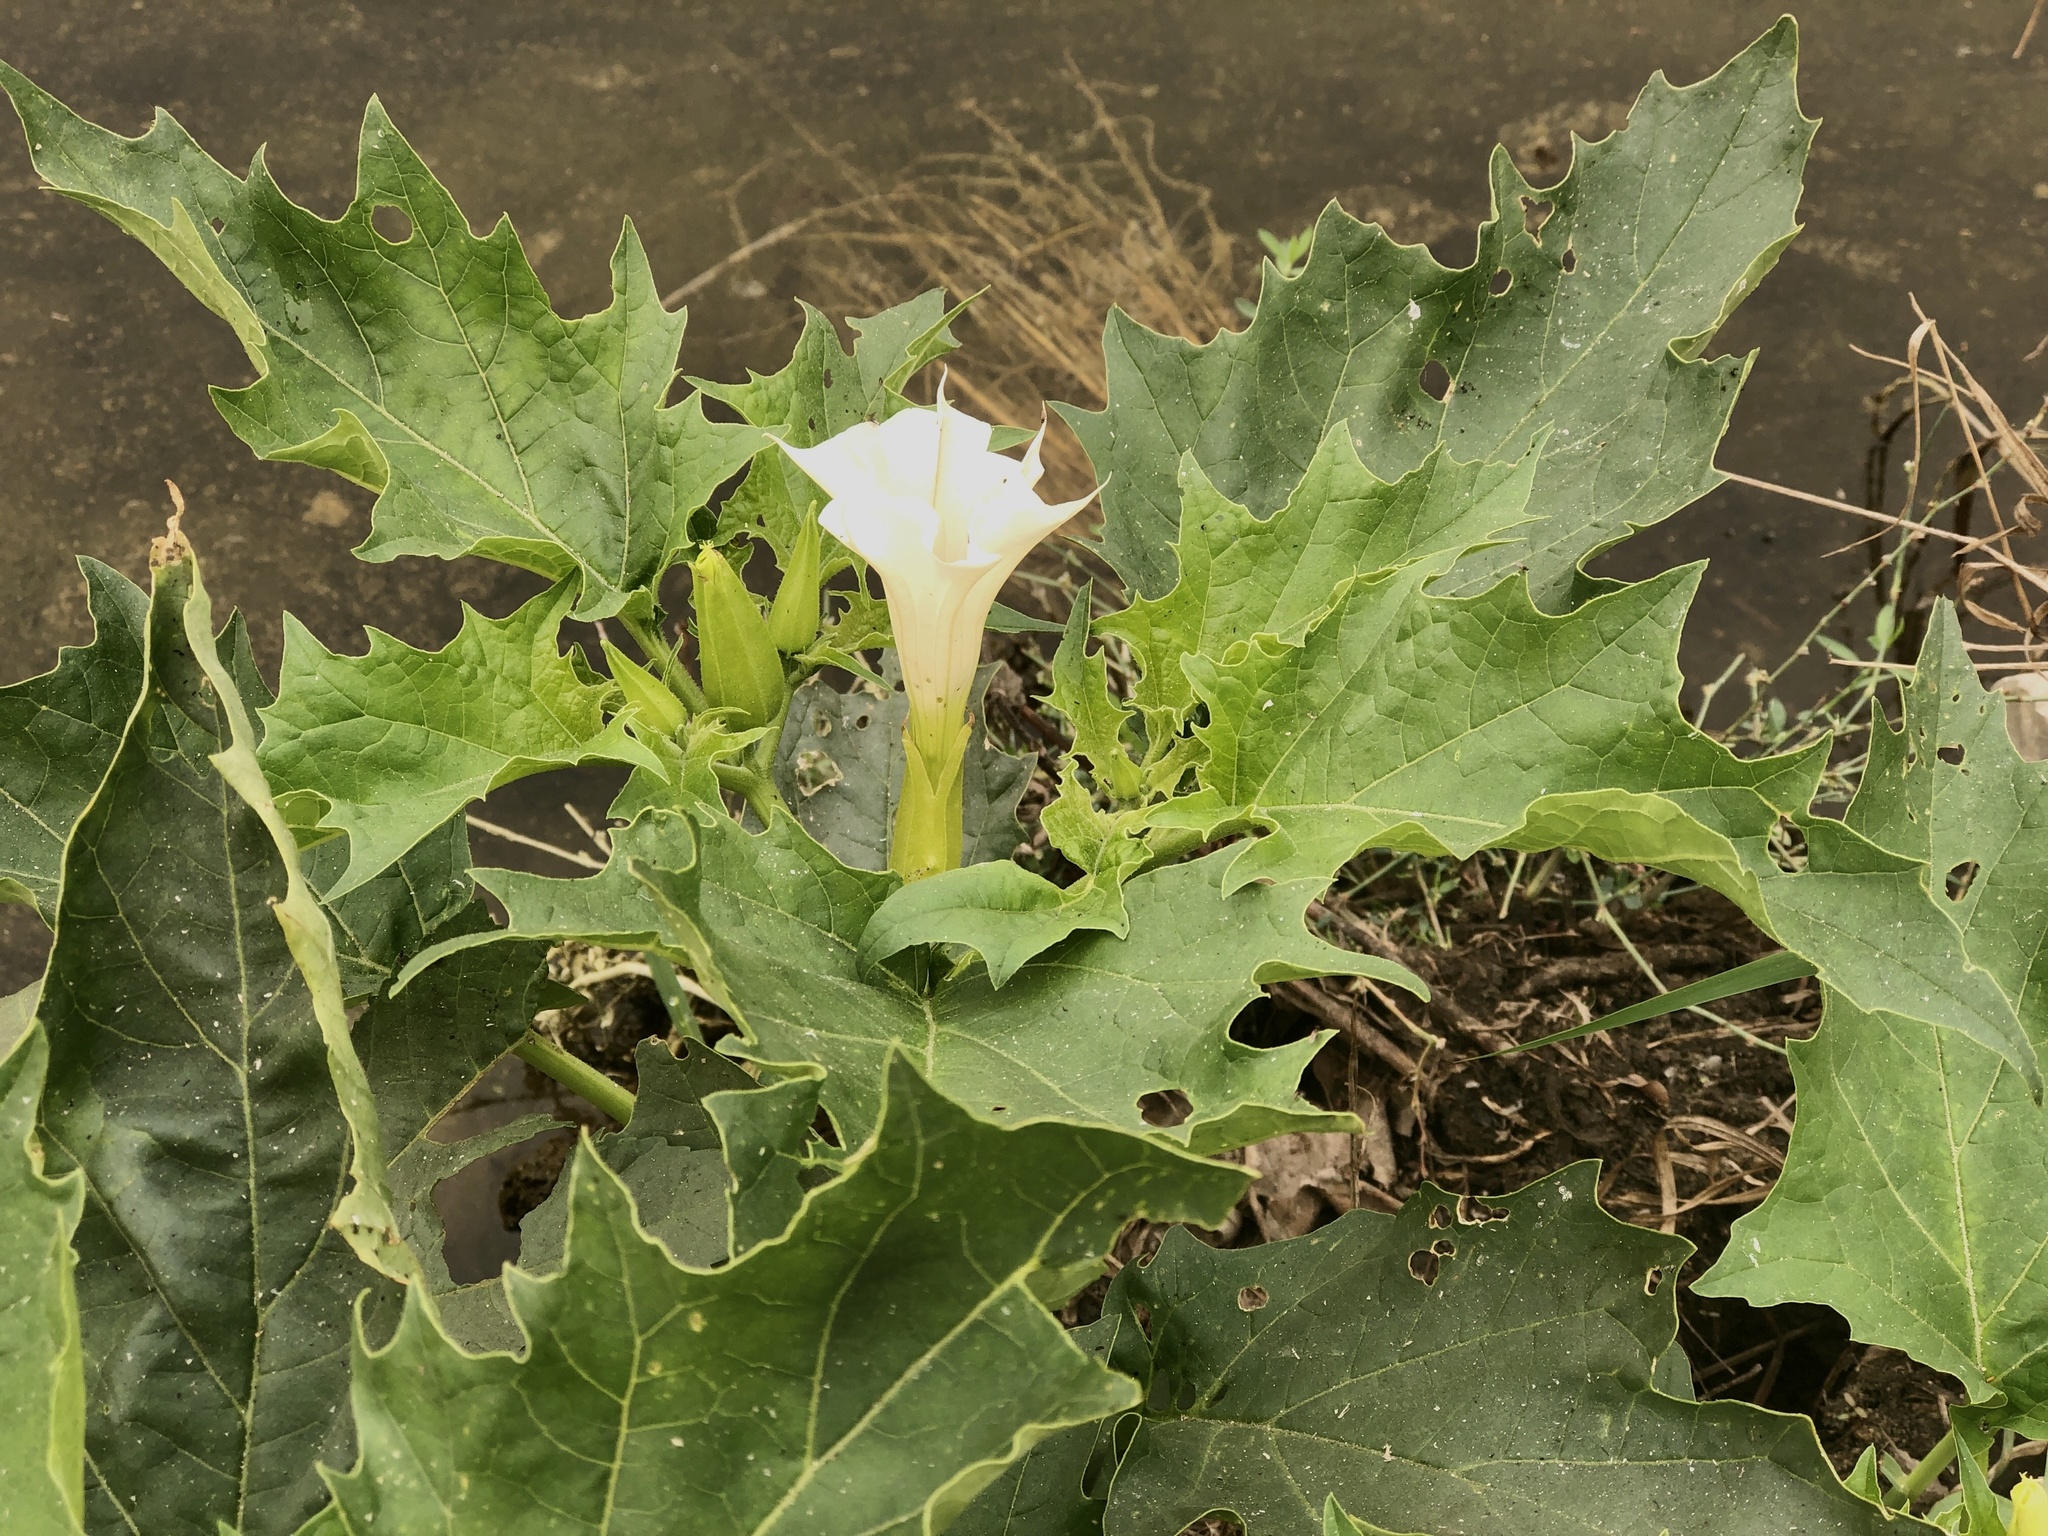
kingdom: Plantae
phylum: Tracheophyta
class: Magnoliopsida
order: Solanales
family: Solanaceae
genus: Datura
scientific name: Datura stramonium
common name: Thorn-apple
